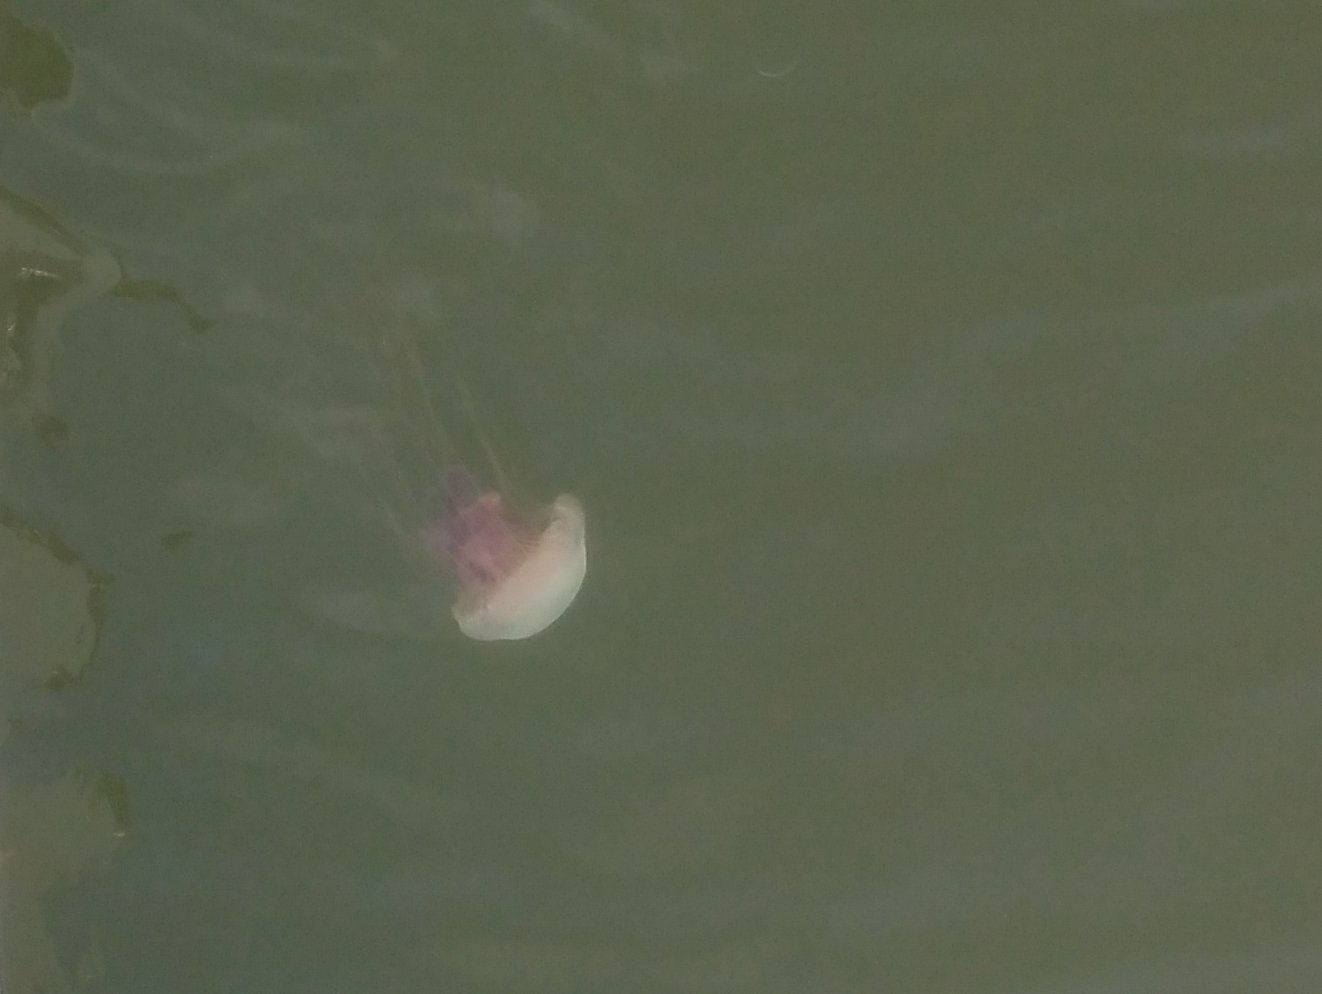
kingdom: Animalia
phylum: Cnidaria
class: Scyphozoa
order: Semaeostomeae
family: Pelagiidae
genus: Chrysaora
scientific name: Chrysaora lactea
